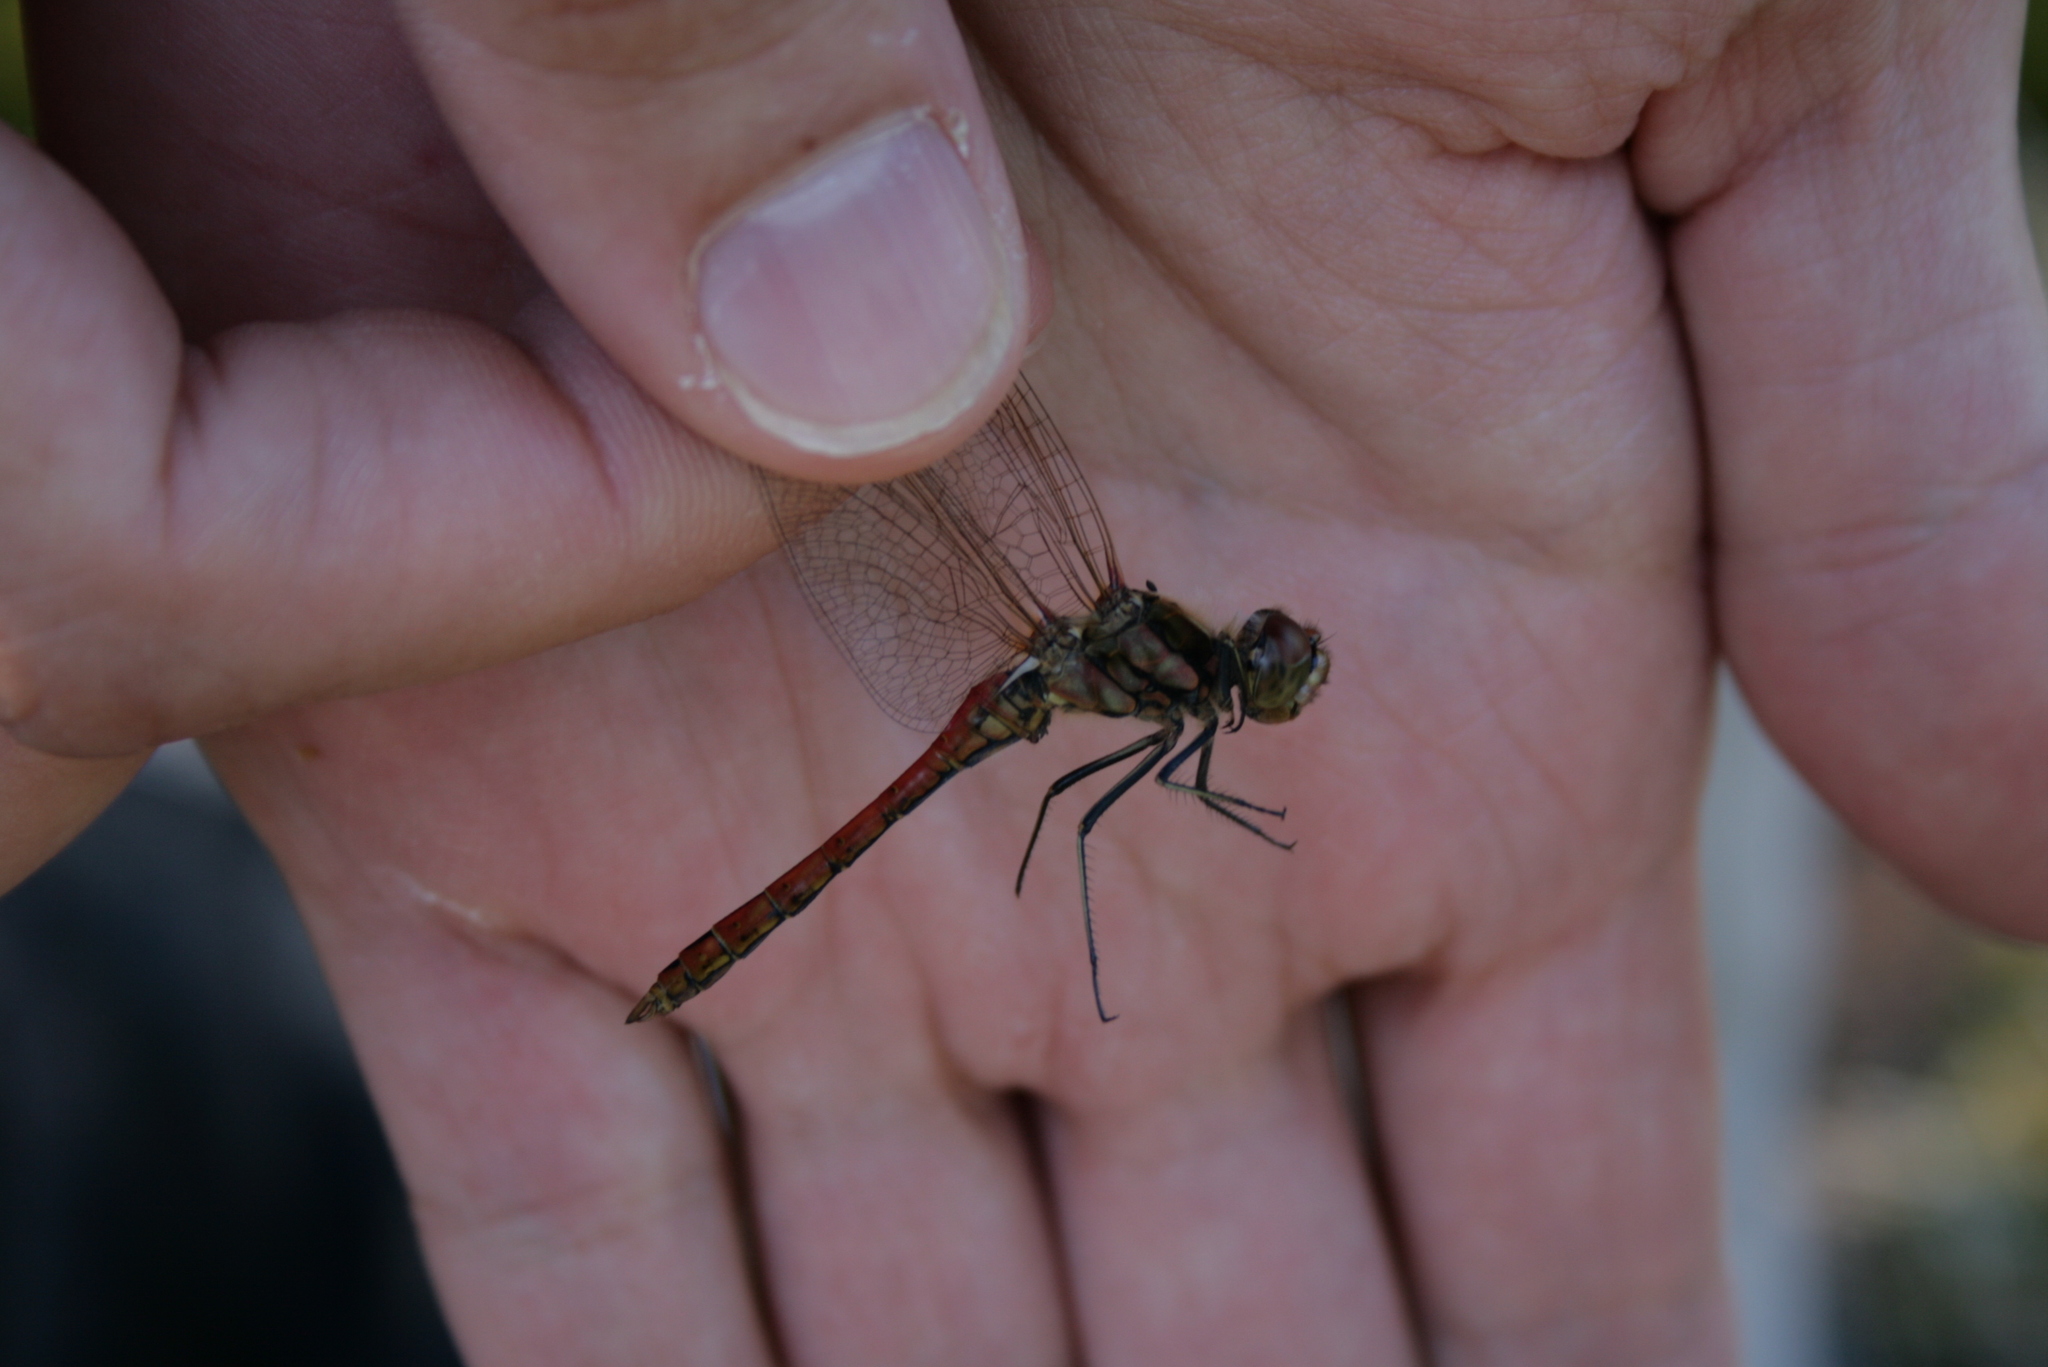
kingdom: Animalia
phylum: Arthropoda
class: Insecta
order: Odonata
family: Libellulidae
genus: Sympetrum
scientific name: Sympetrum vulgatum
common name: Vagrant darter
